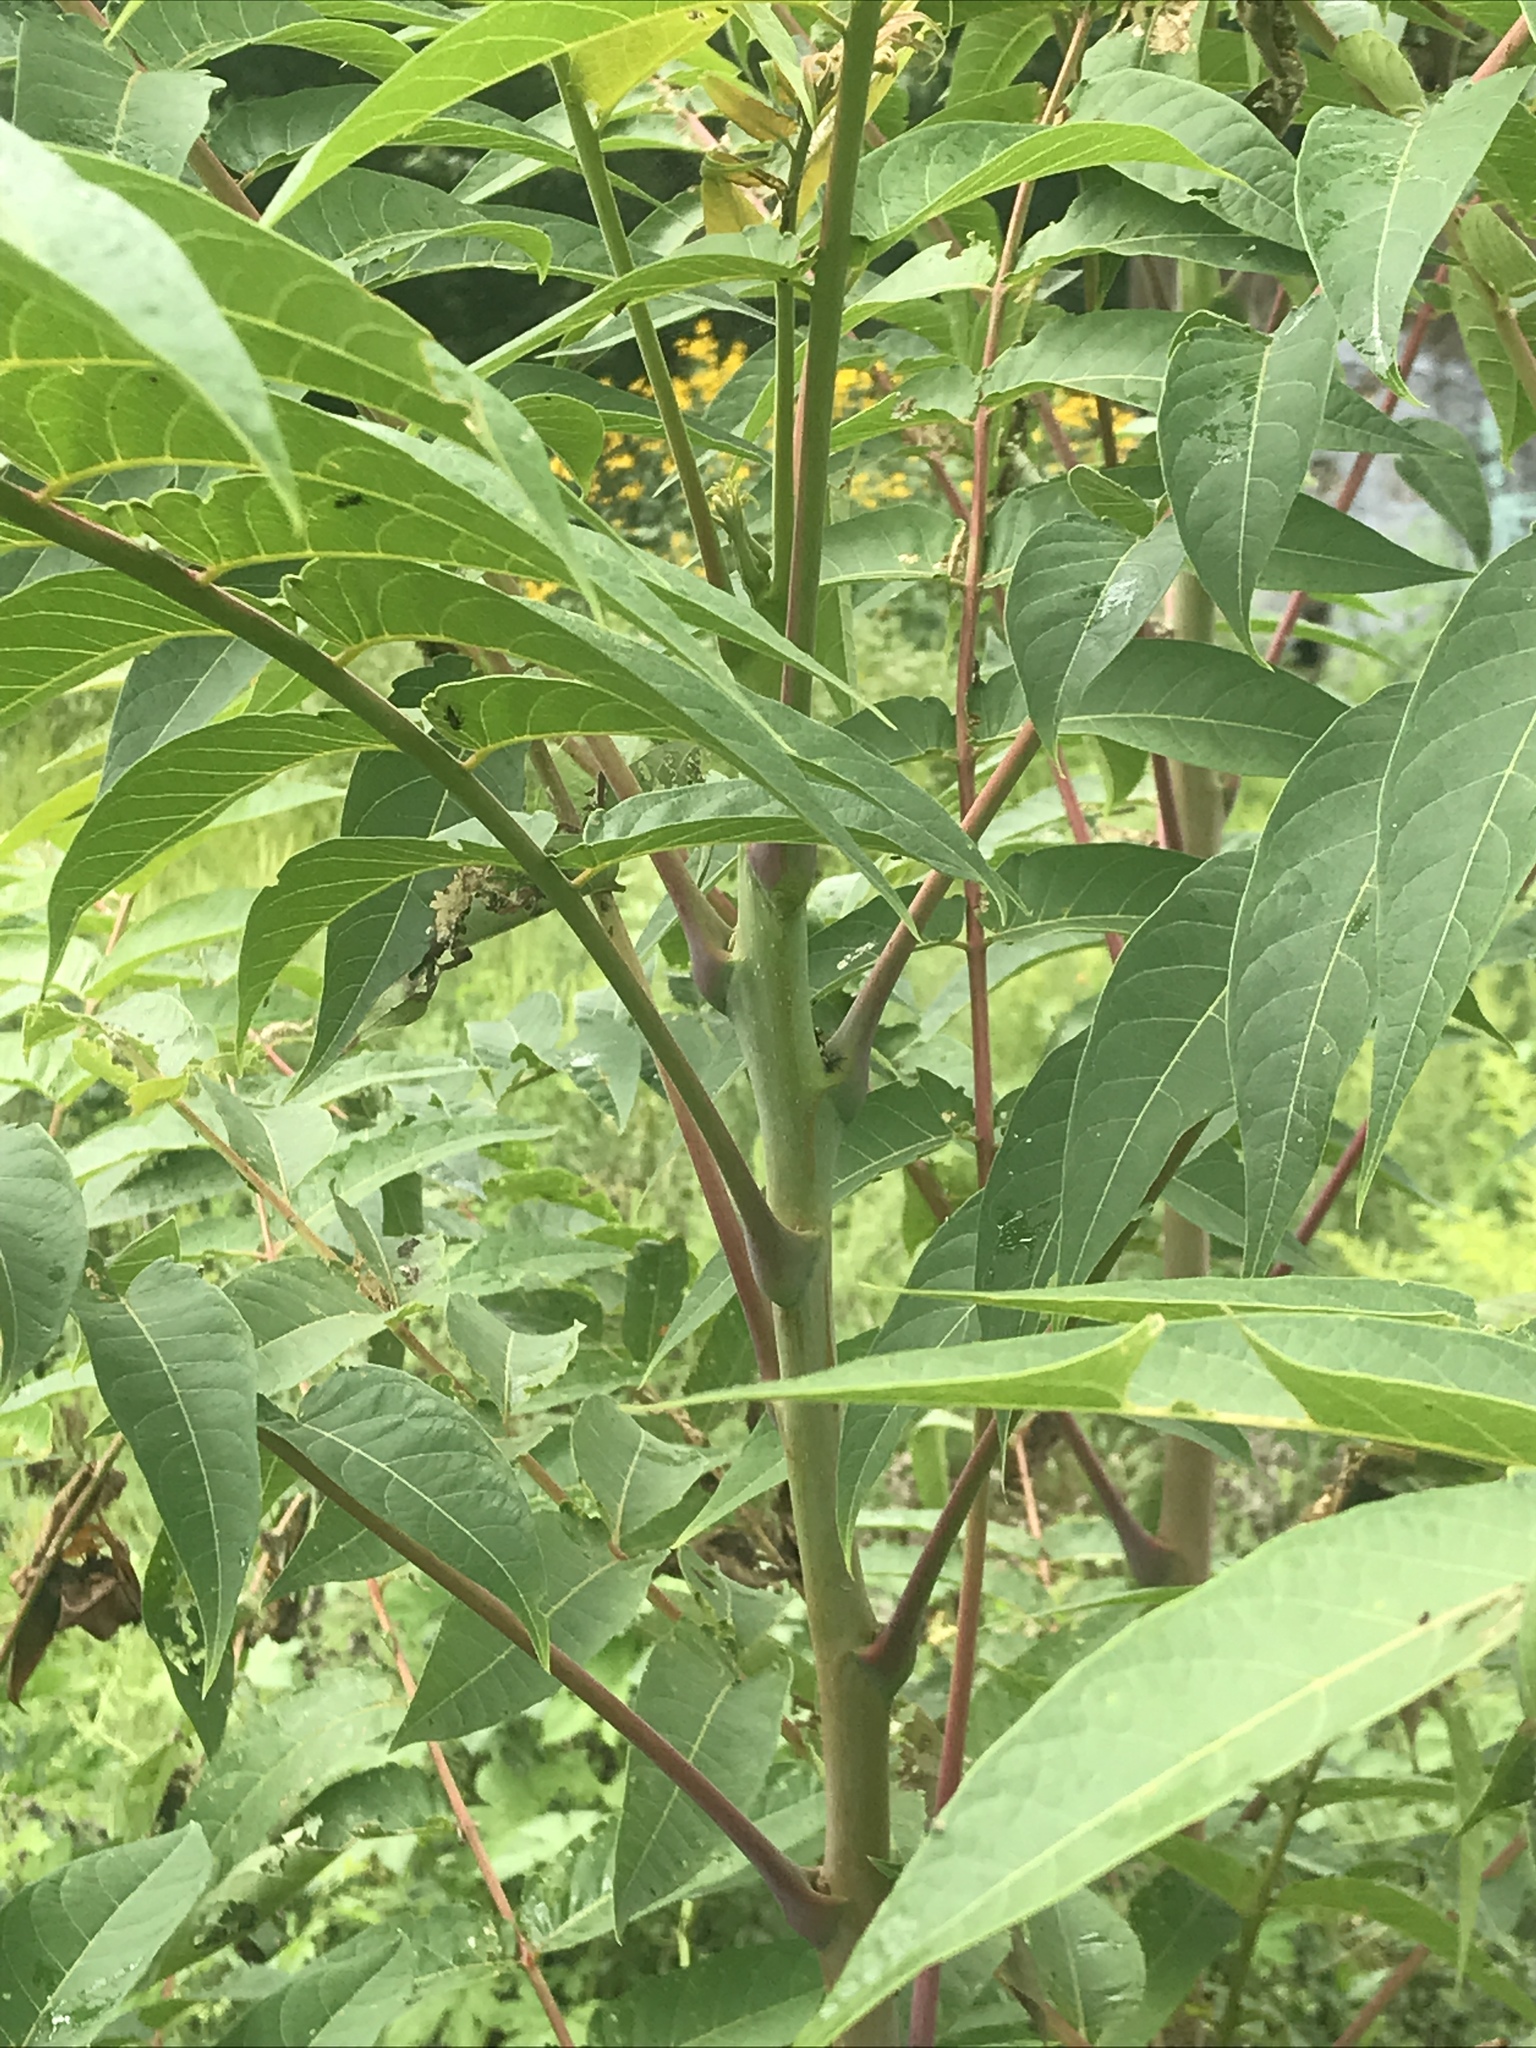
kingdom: Plantae
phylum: Tracheophyta
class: Magnoliopsida
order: Sapindales
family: Simaroubaceae
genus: Ailanthus
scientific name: Ailanthus altissima
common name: Tree-of-heaven
